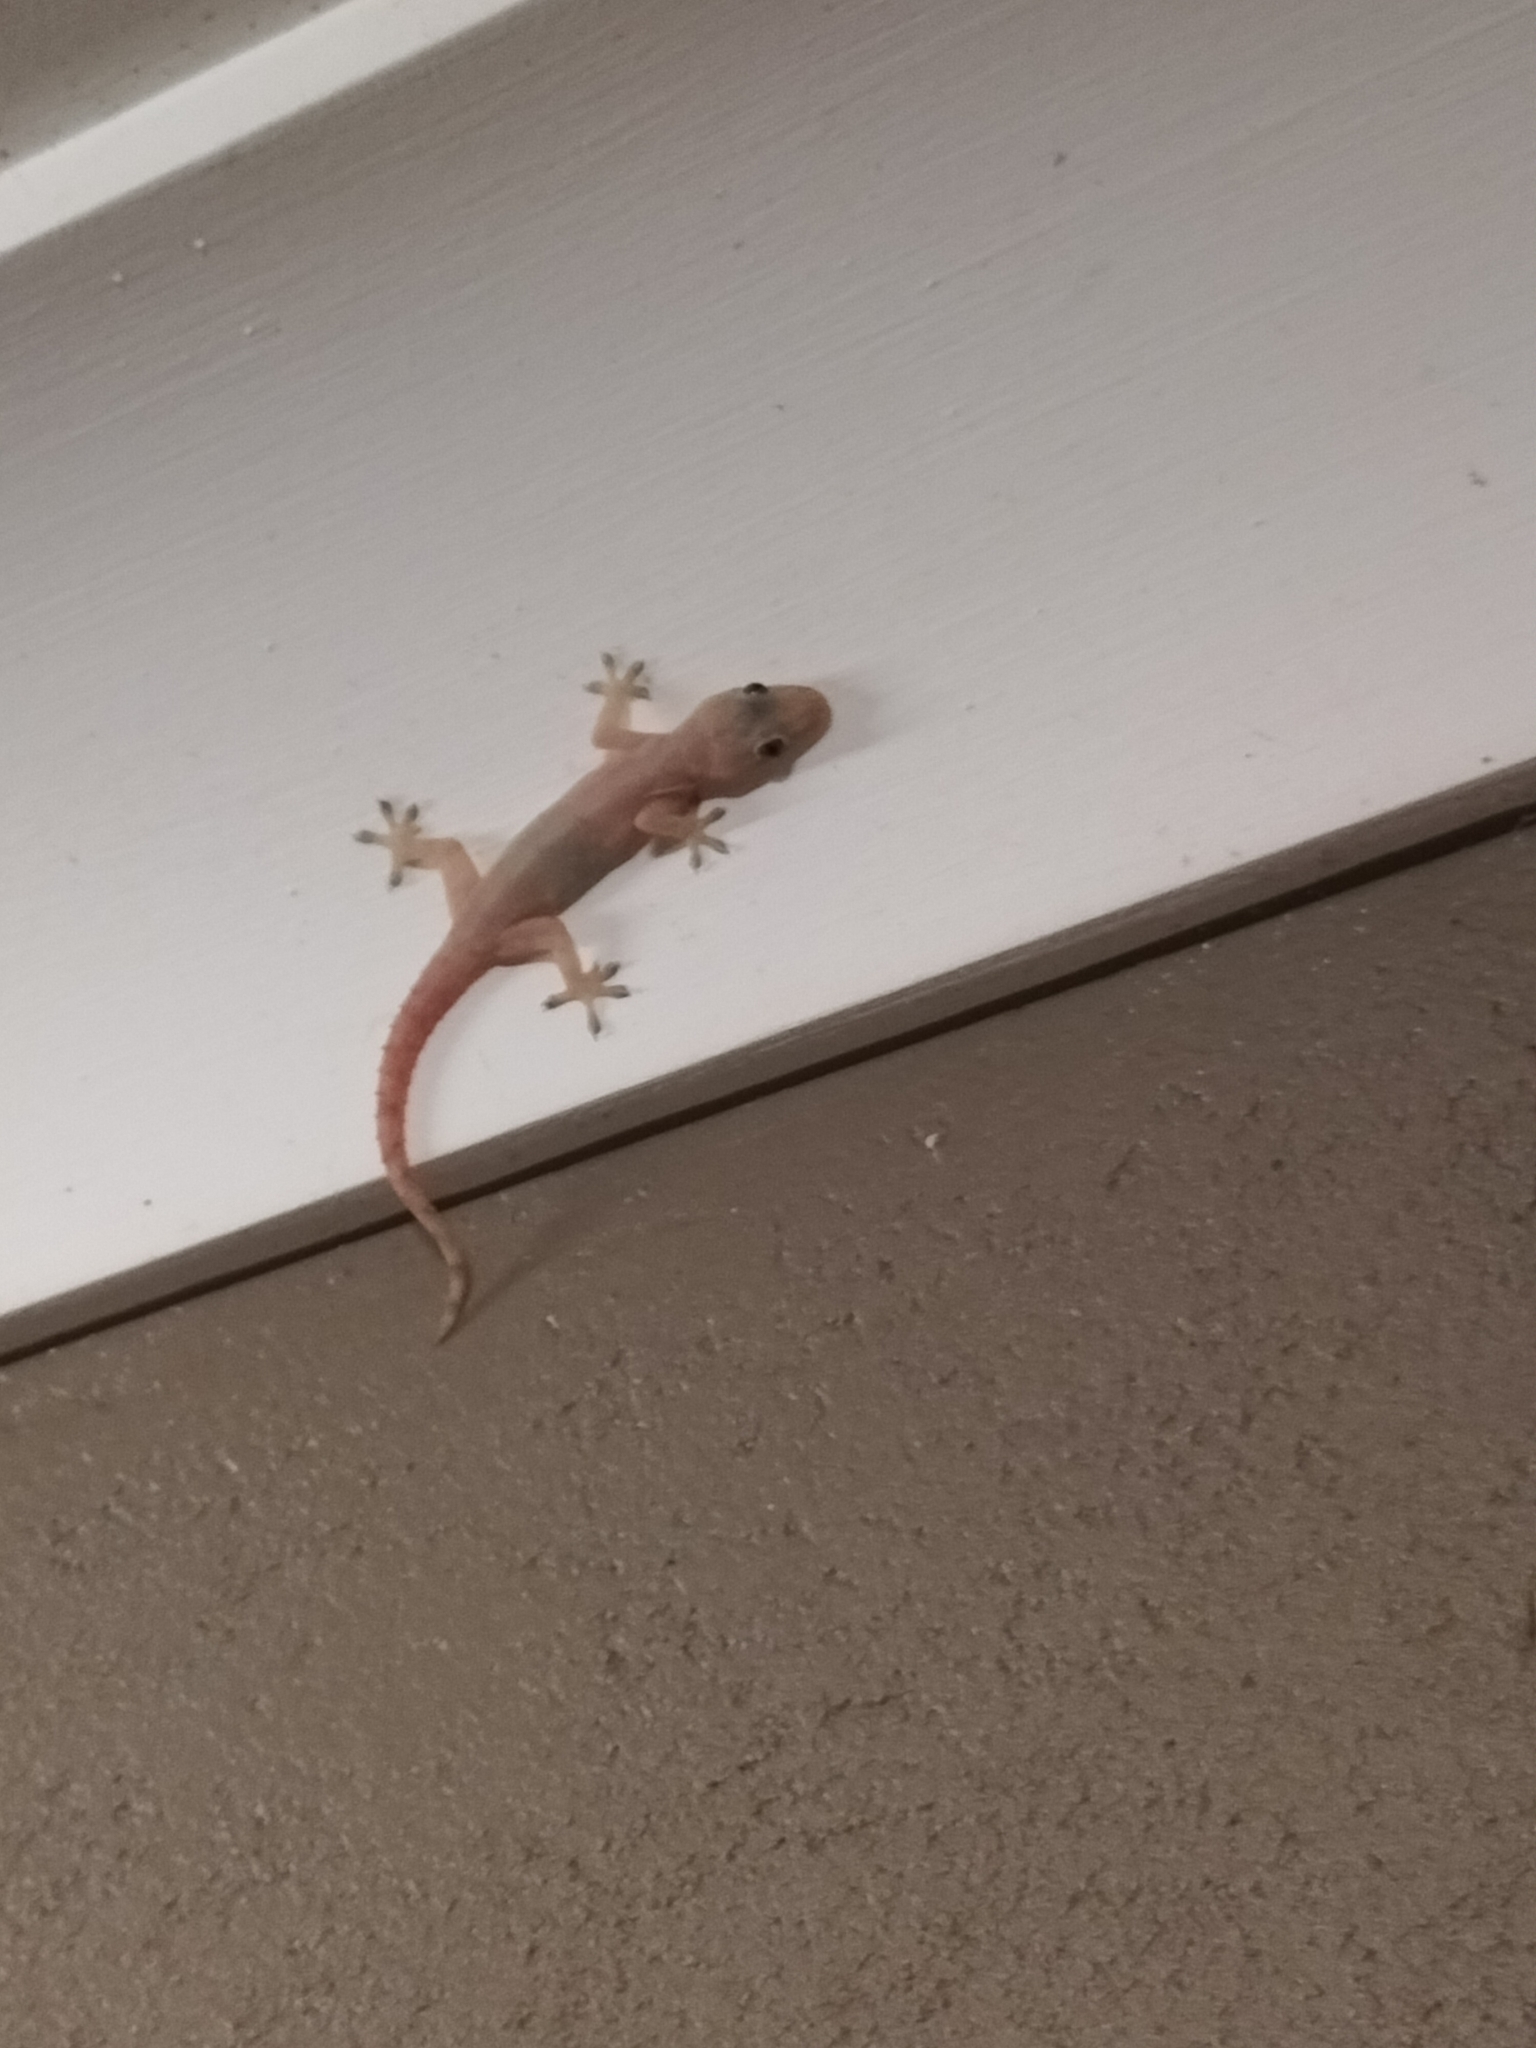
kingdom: Animalia
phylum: Chordata
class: Squamata
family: Gekkonidae
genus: Hemidactylus
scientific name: Hemidactylus frenatus
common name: Common house gecko
